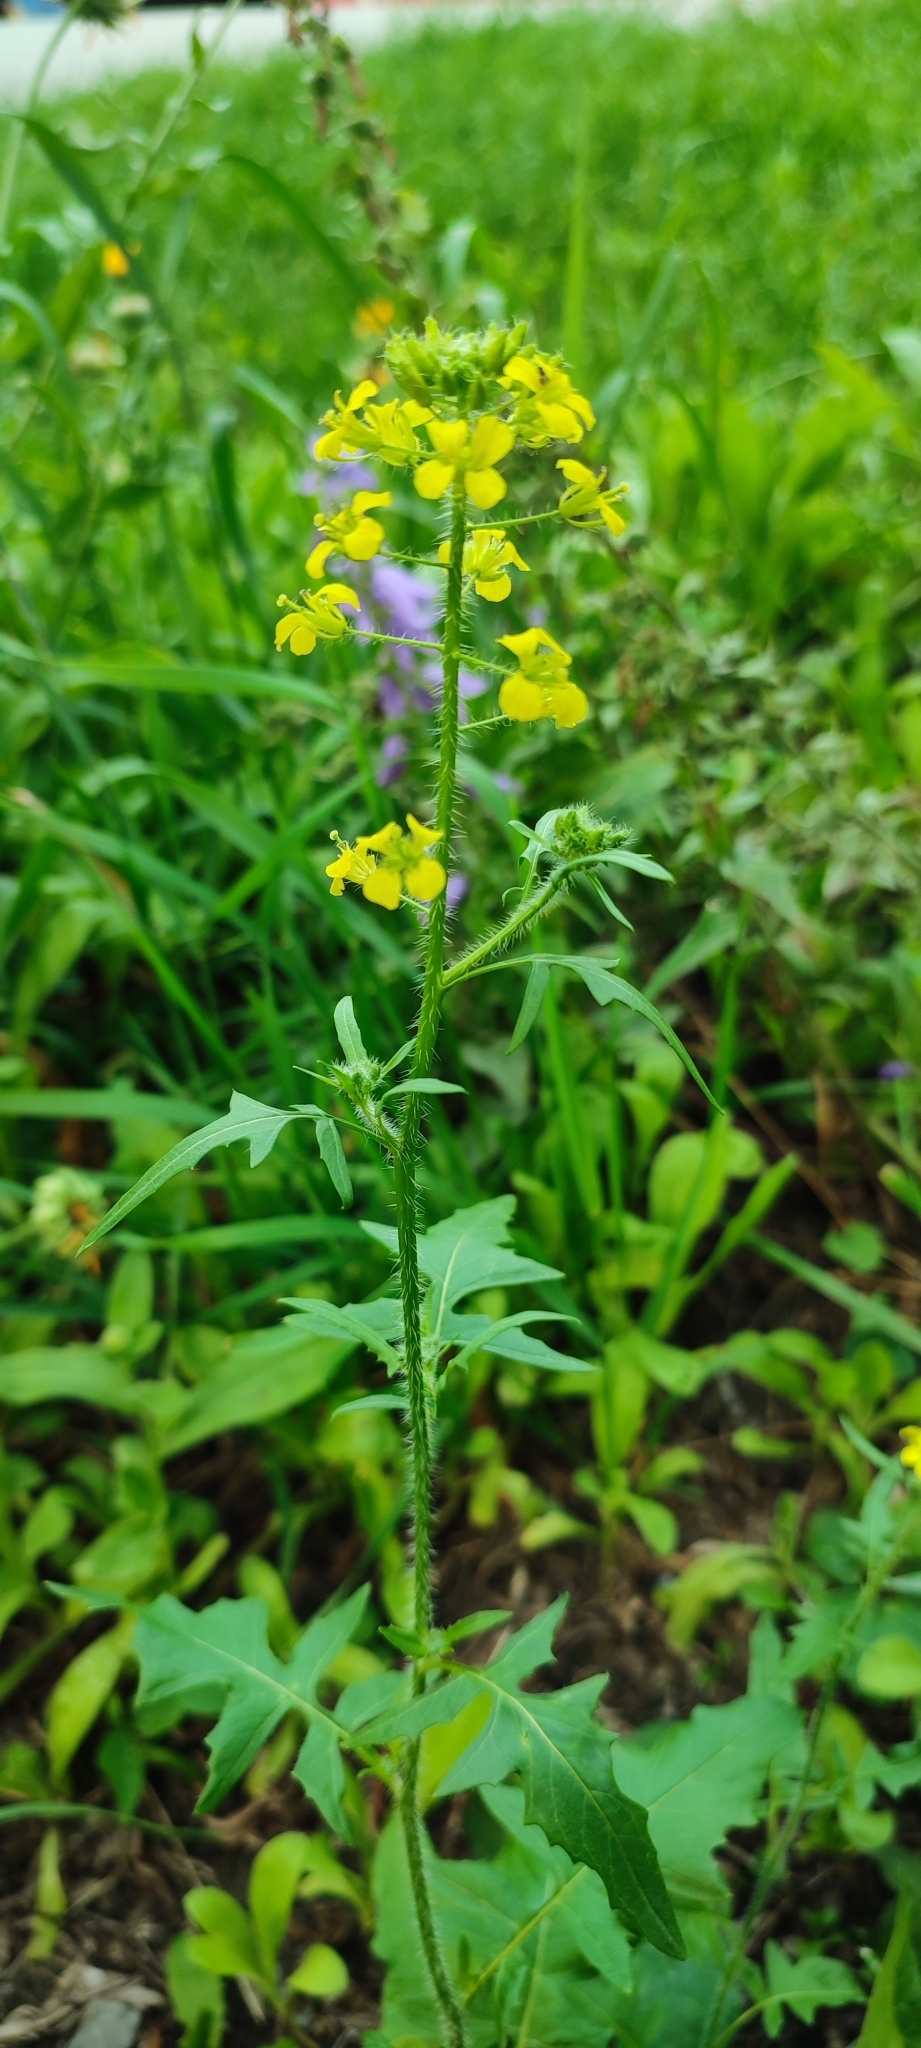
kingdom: Plantae
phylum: Tracheophyta
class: Magnoliopsida
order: Brassicales
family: Brassicaceae
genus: Sisymbrium
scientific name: Sisymbrium loeselii
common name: False london-rocket
